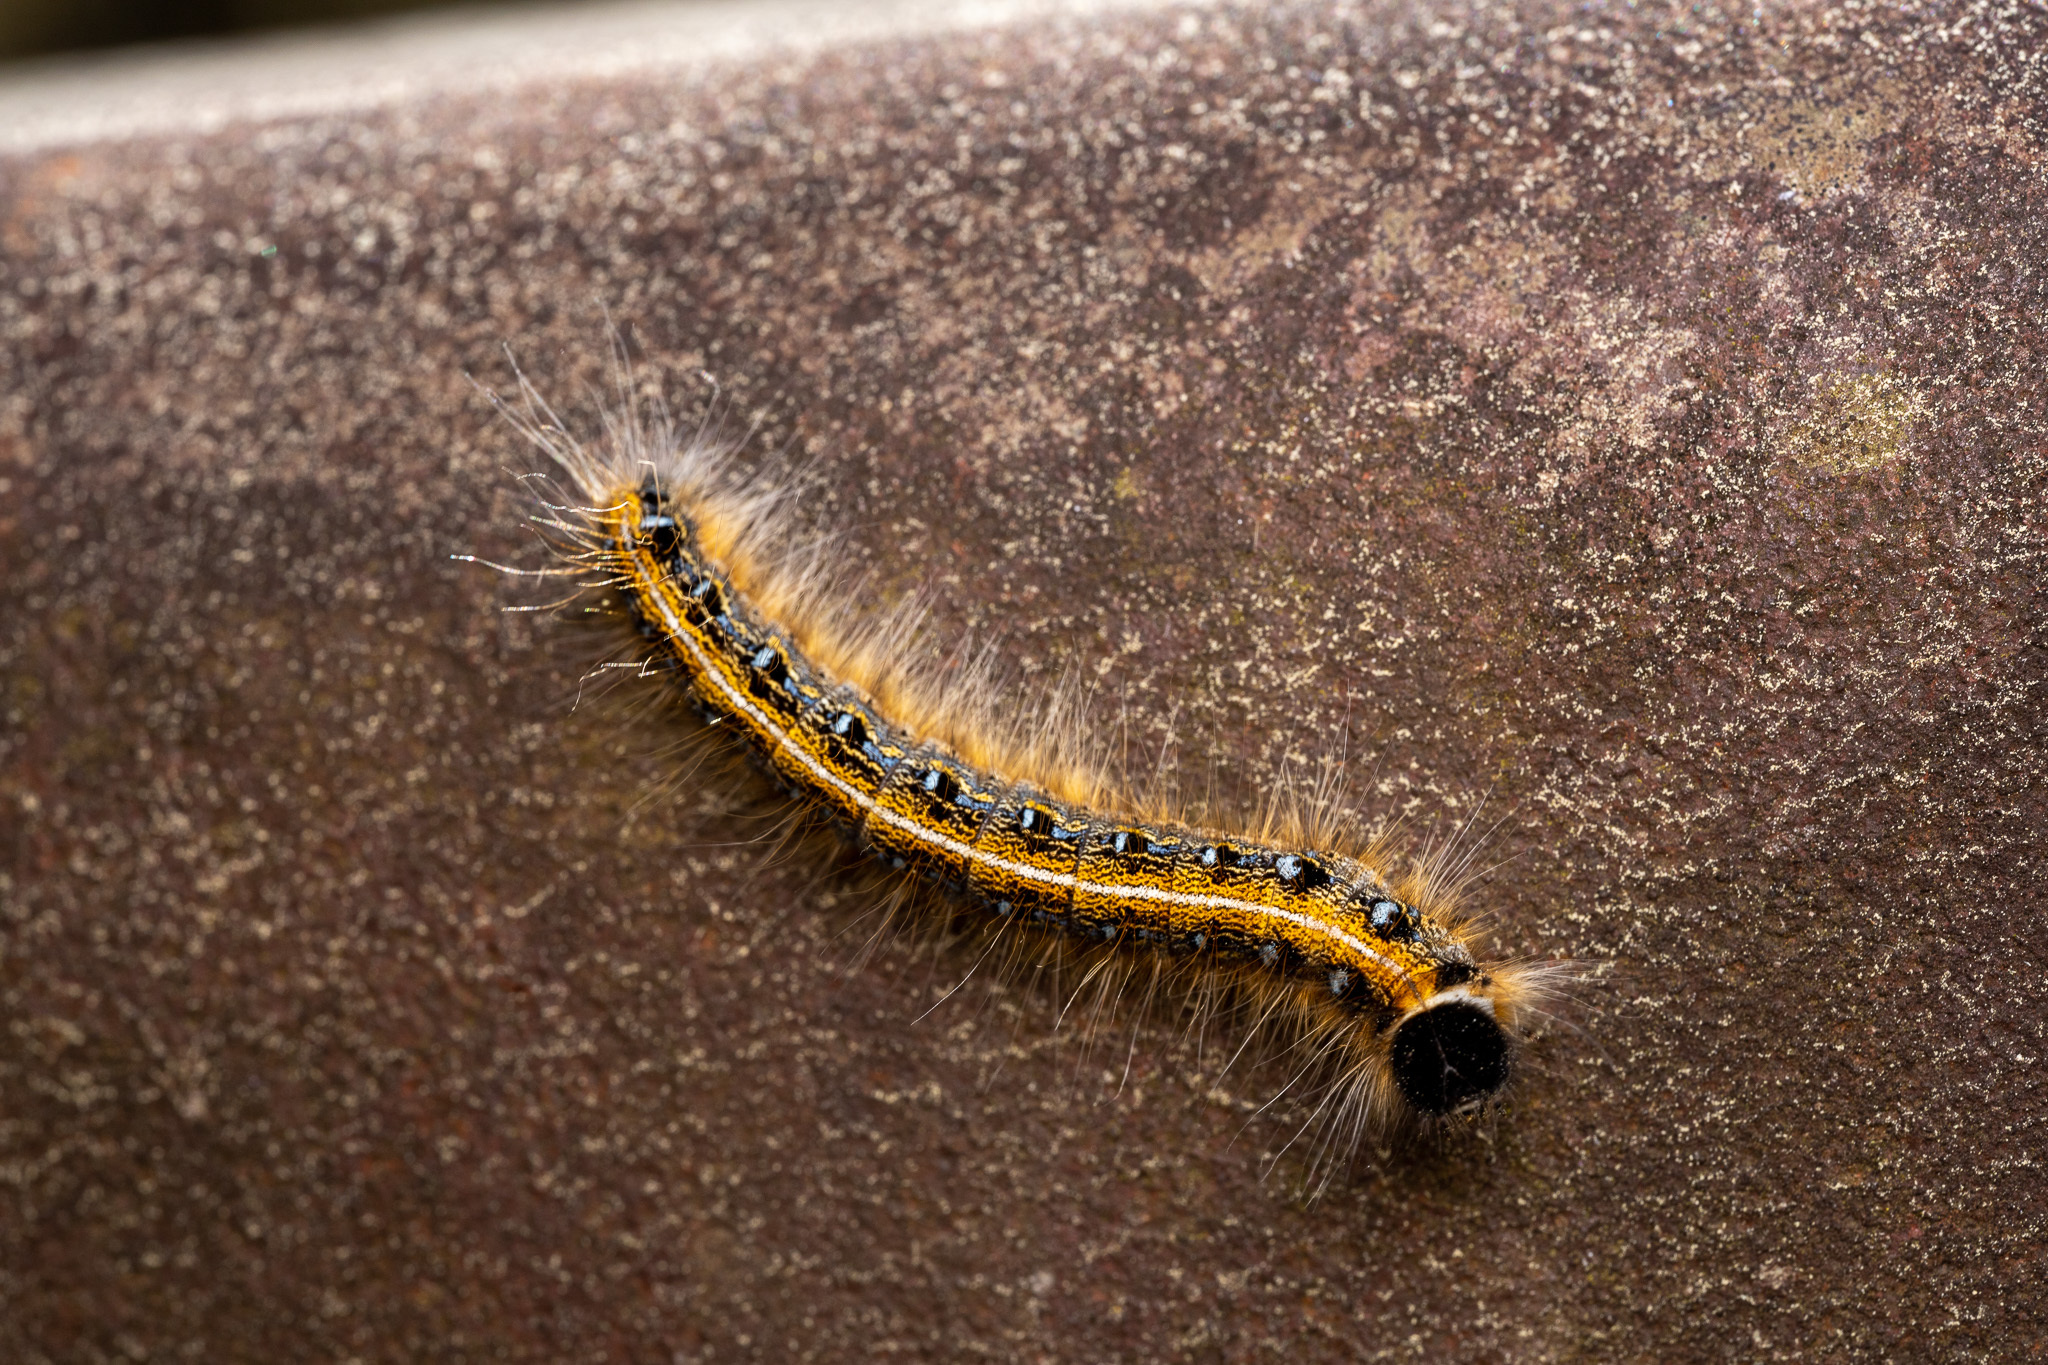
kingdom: Animalia
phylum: Arthropoda
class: Insecta
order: Lepidoptera
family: Lasiocampidae
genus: Malacosoma
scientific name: Malacosoma americana
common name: Eastern tent caterpillar moth
